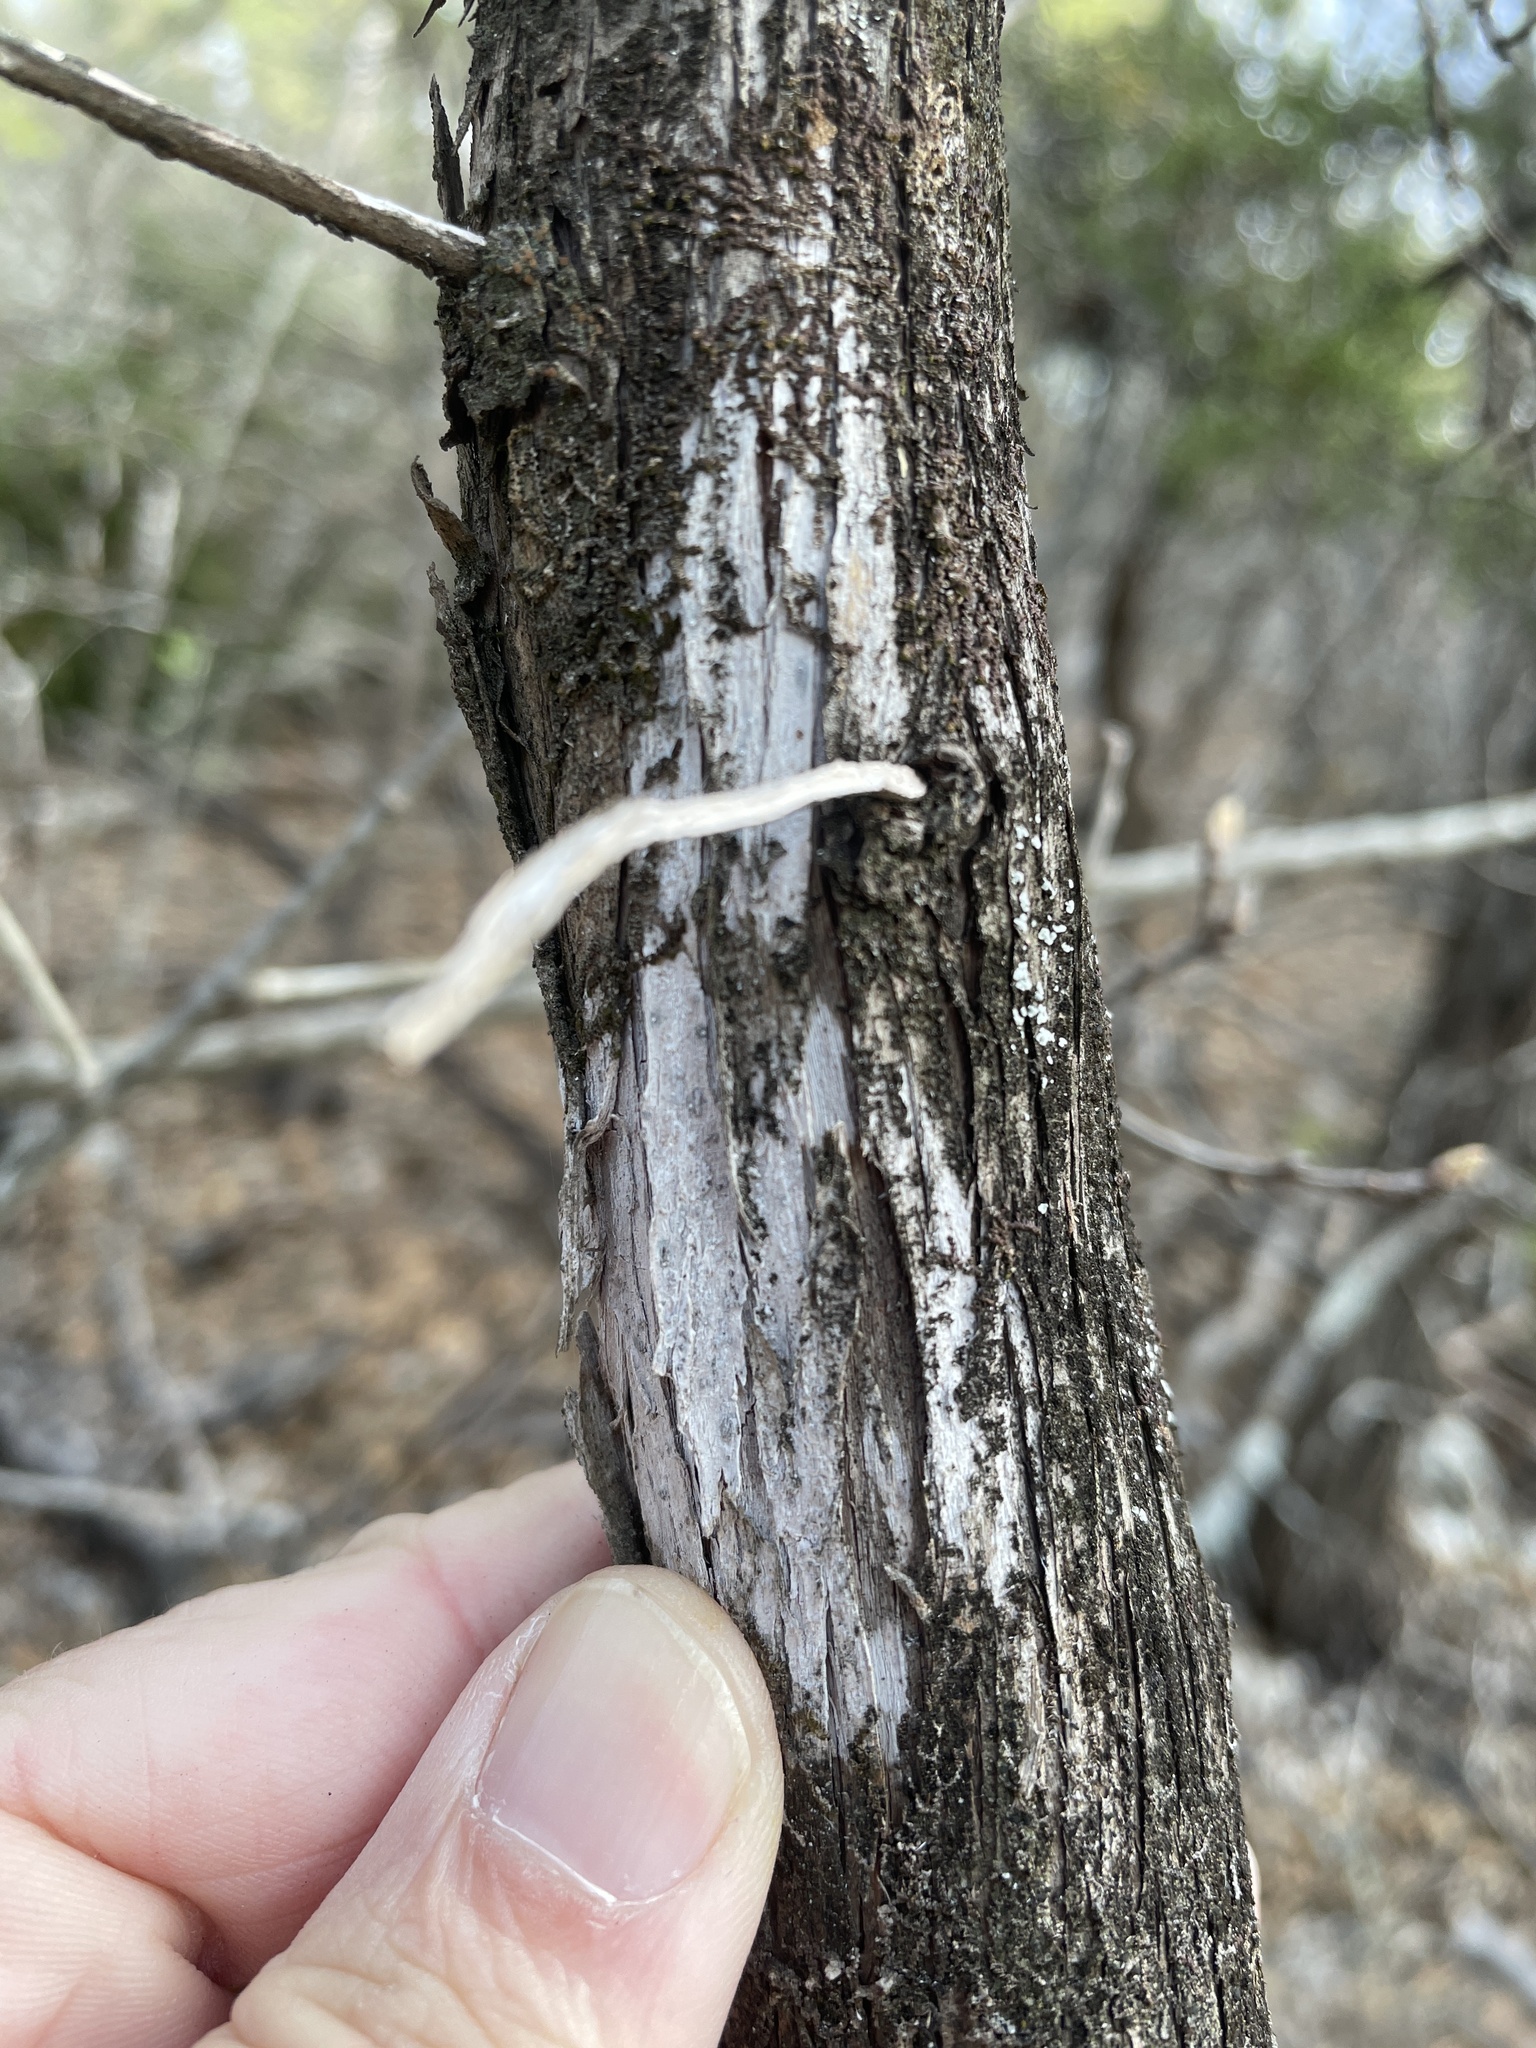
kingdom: Fungi
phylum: Ascomycota
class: Lecanoromycetes
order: Ostropales
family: Stictidaceae
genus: Robergea
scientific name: Robergea
